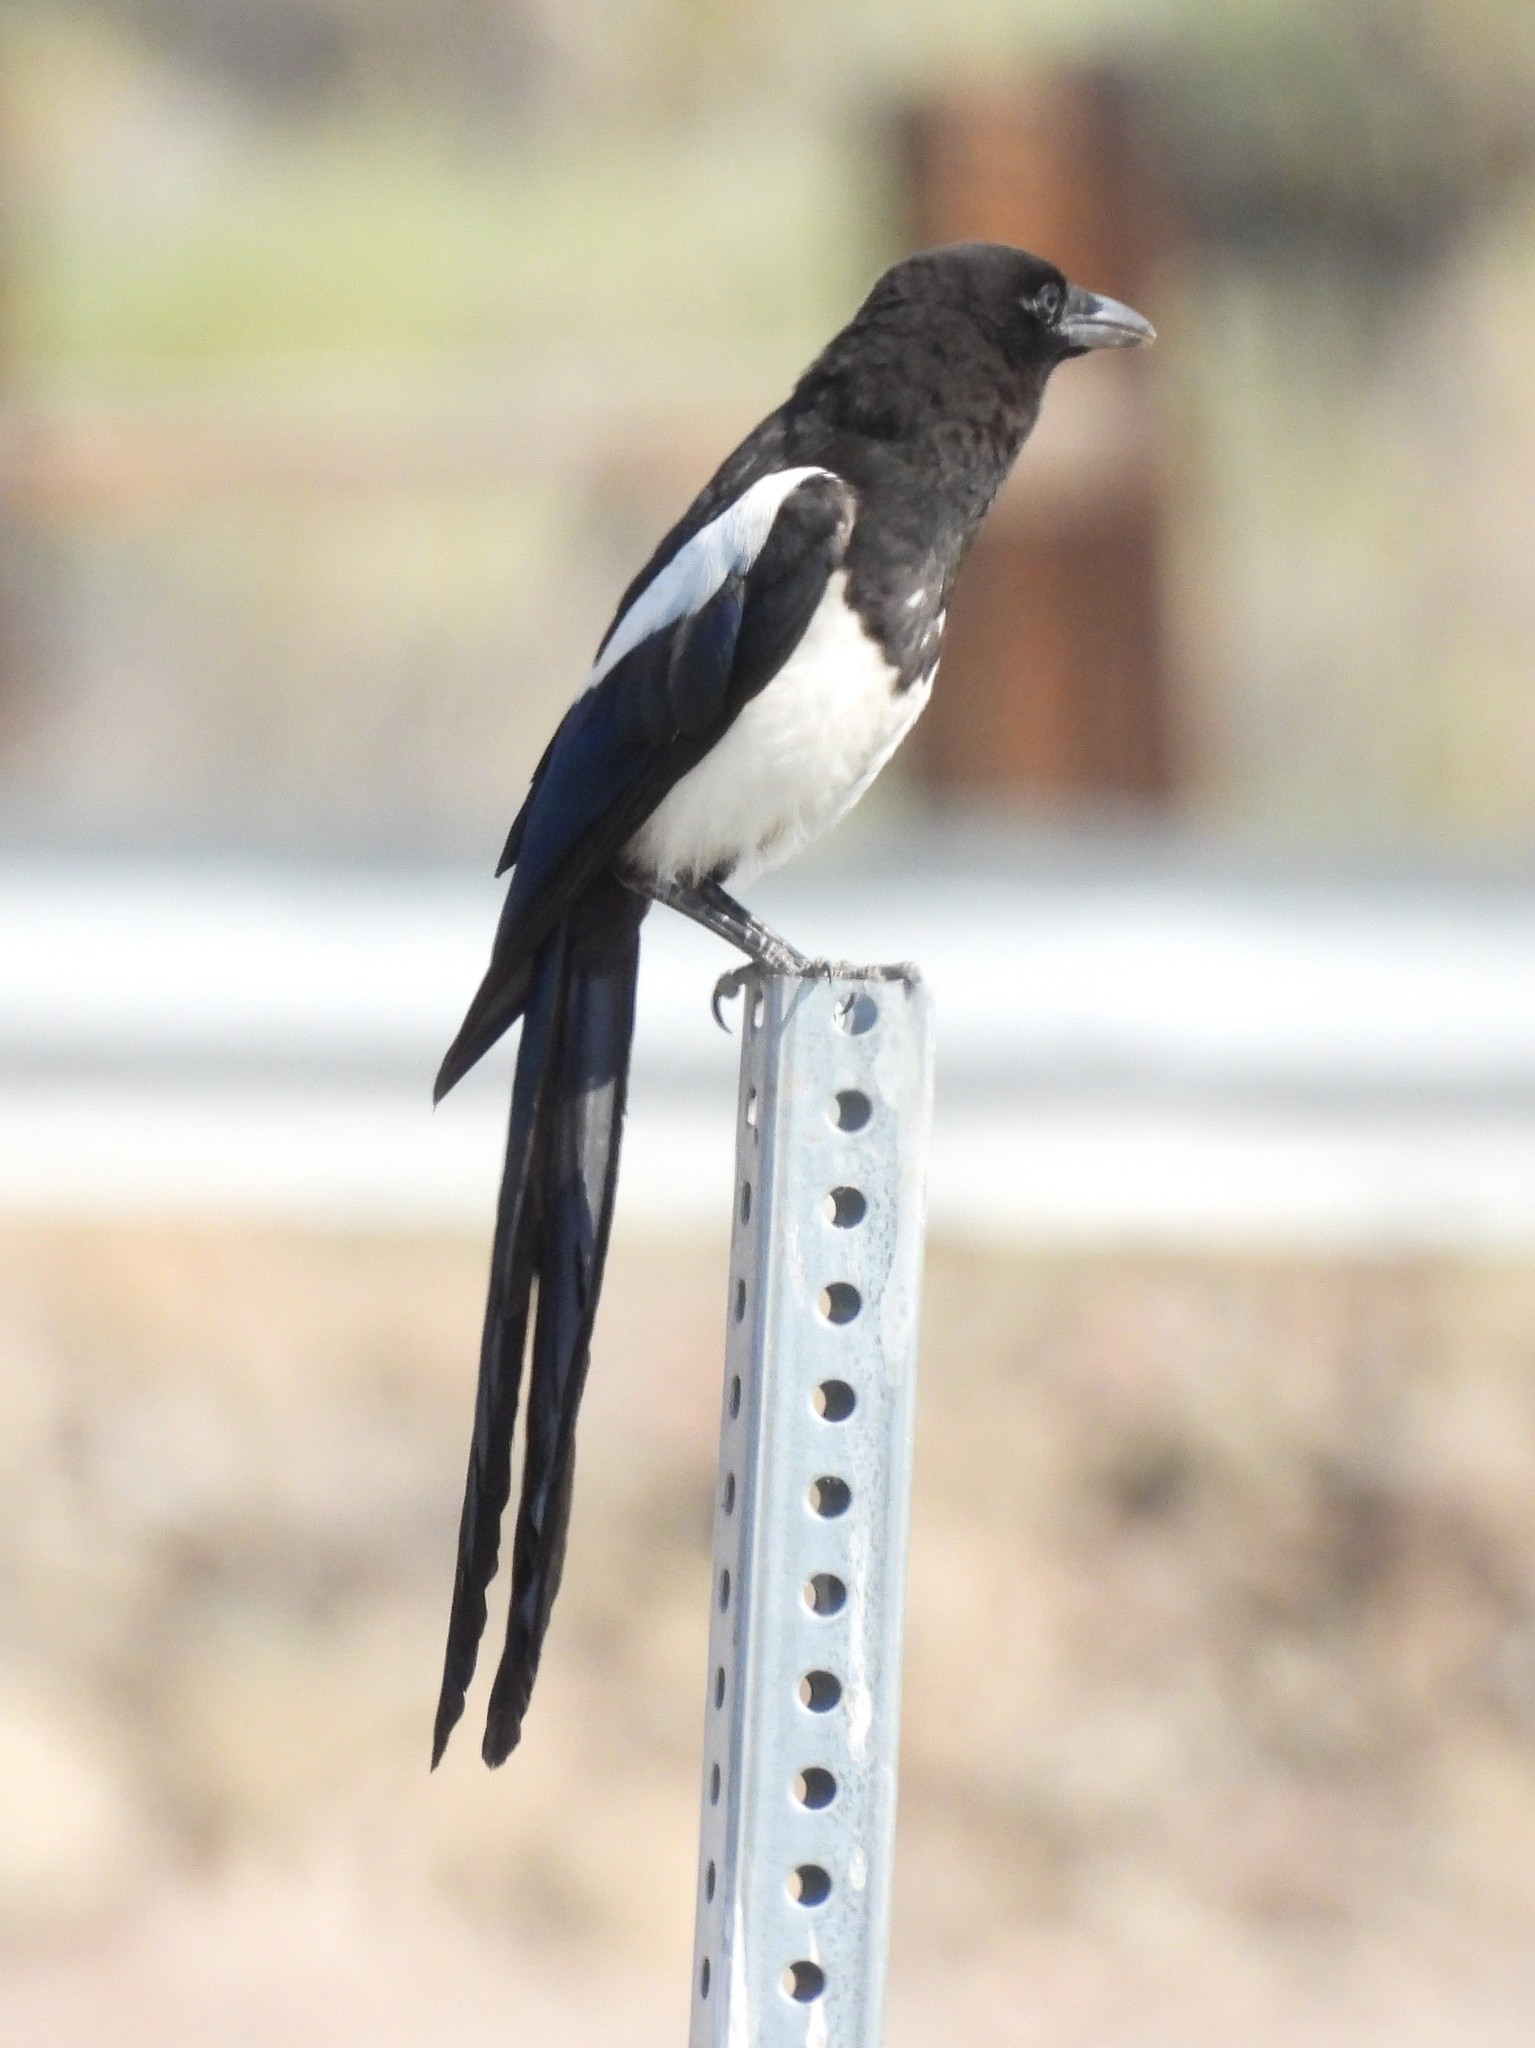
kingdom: Animalia
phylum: Chordata
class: Aves
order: Passeriformes
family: Corvidae
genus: Pica
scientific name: Pica hudsonia
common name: Black-billed magpie
